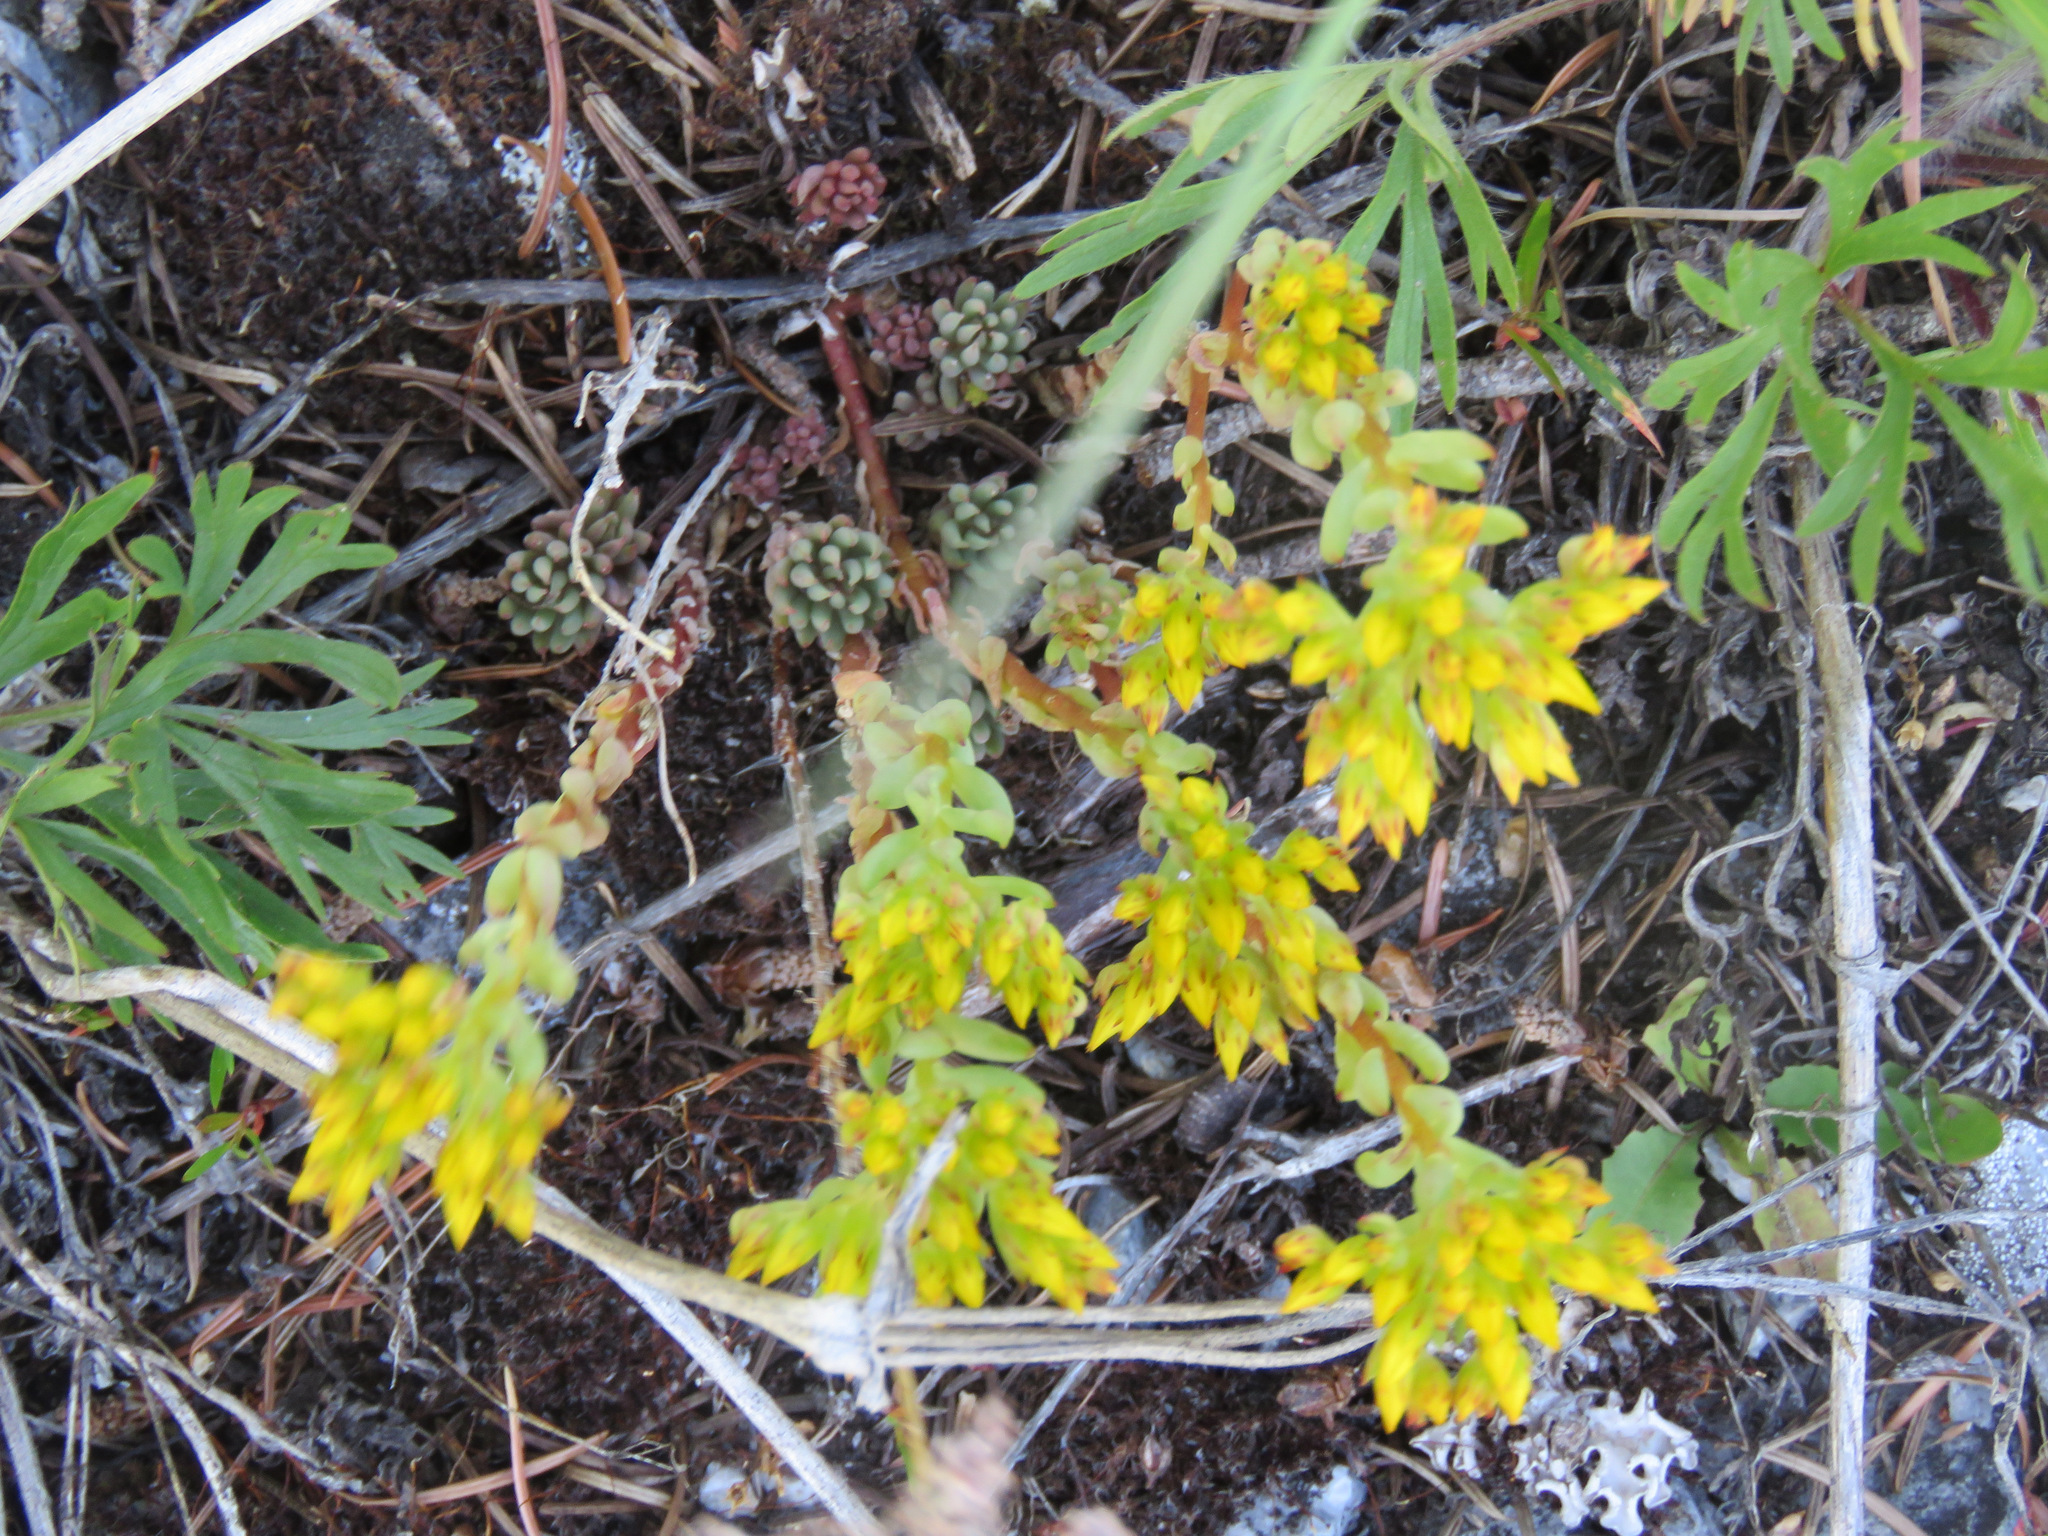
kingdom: Plantae
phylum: Tracheophyta
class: Magnoliopsida
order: Saxifragales
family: Crassulaceae
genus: Sedum
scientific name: Sedum lanceolatum
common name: Common stonecrop
